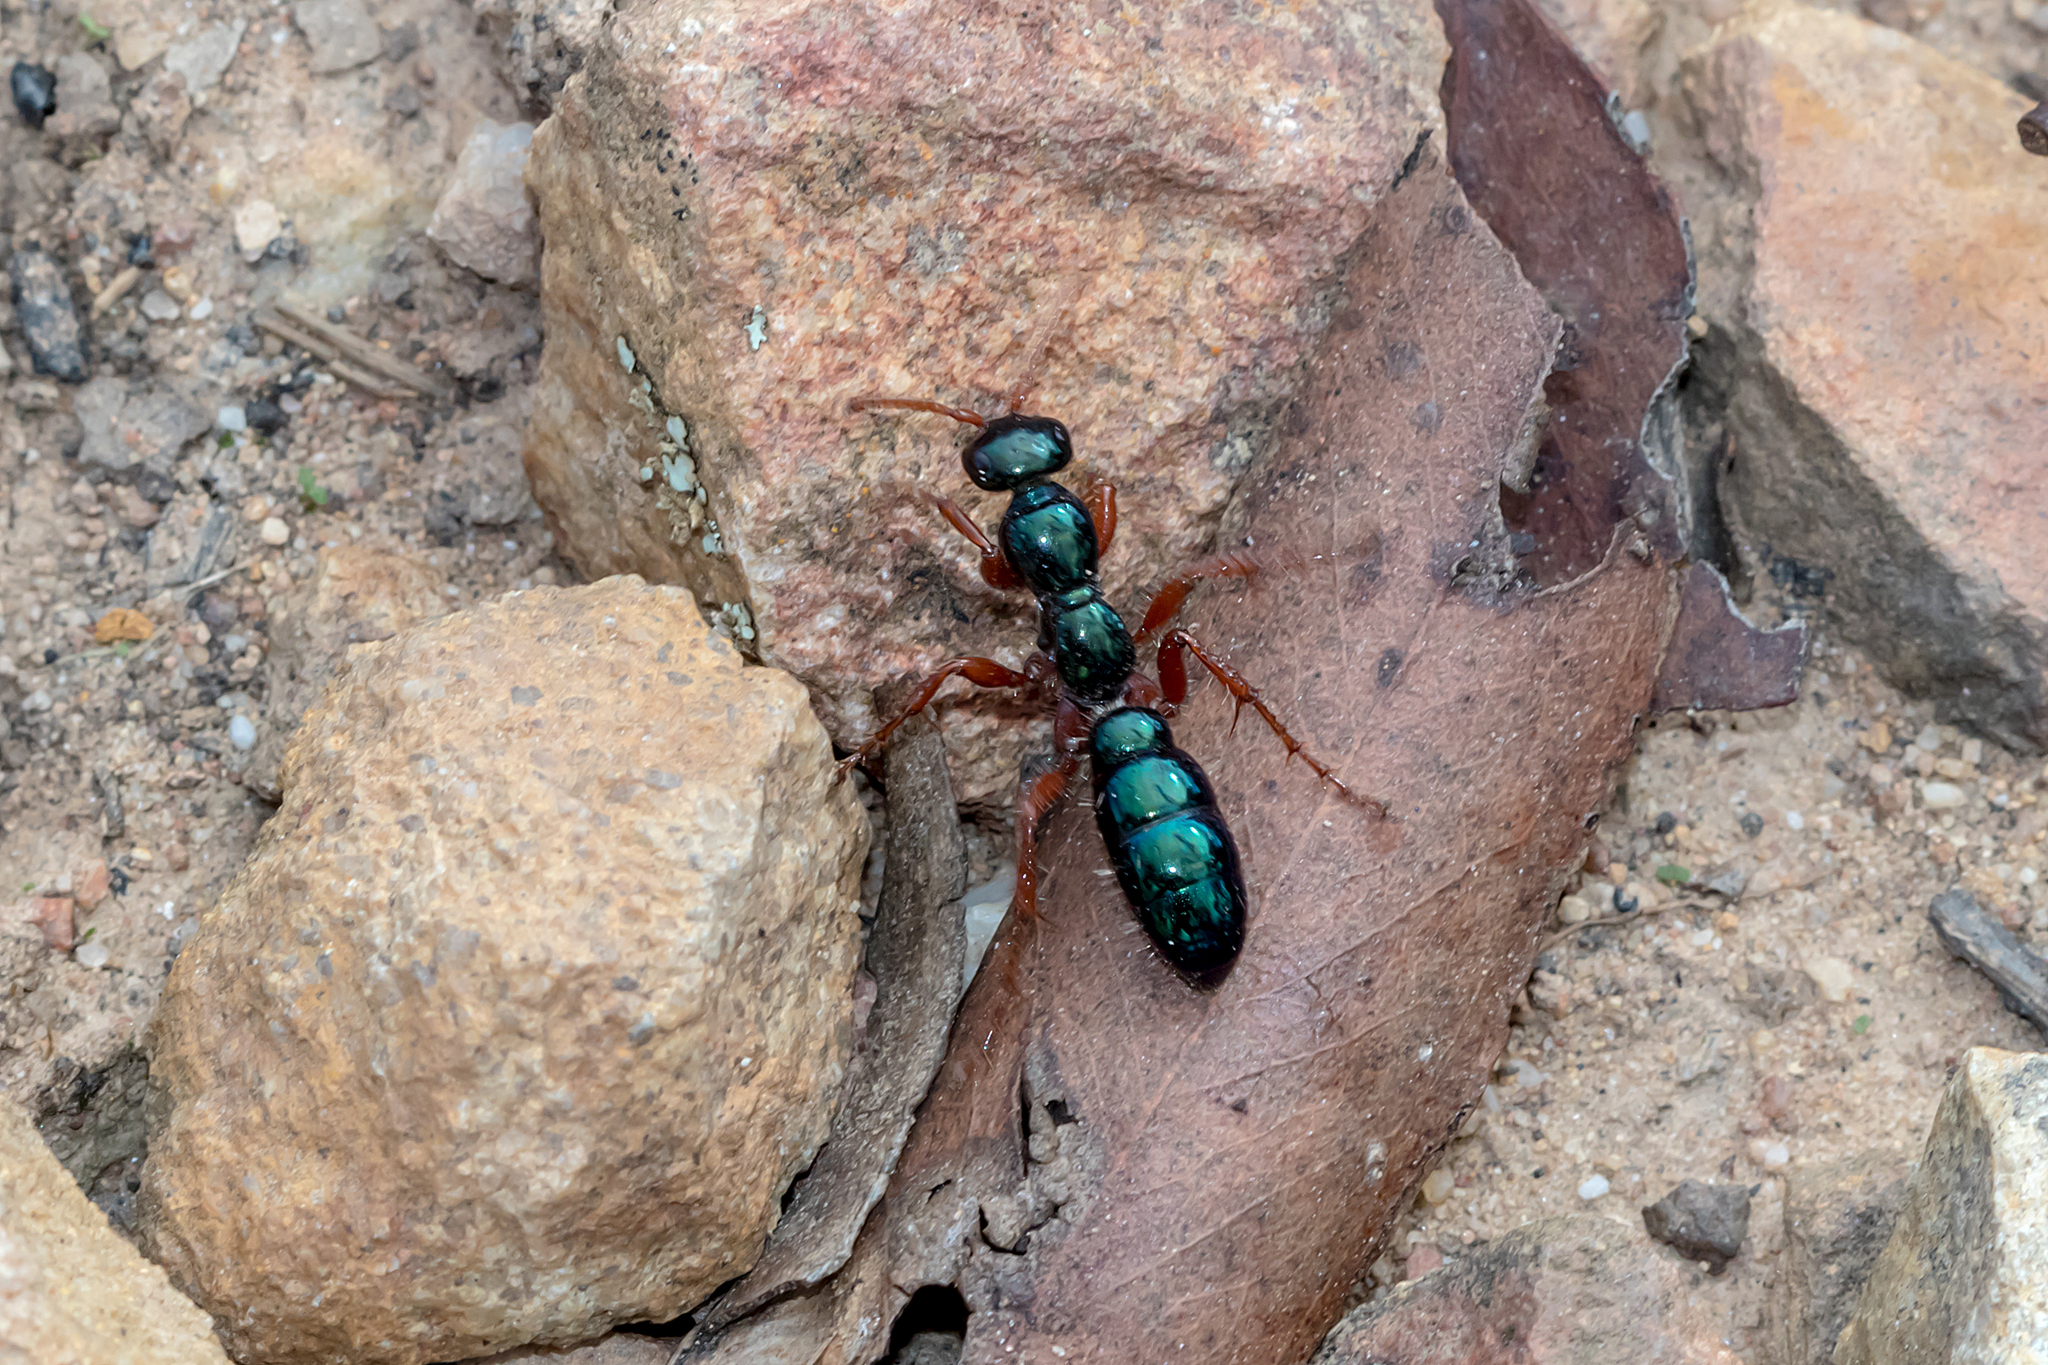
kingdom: Animalia
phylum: Arthropoda
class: Insecta
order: Hymenoptera
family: Tiphiidae
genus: Diamma
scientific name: Diamma
